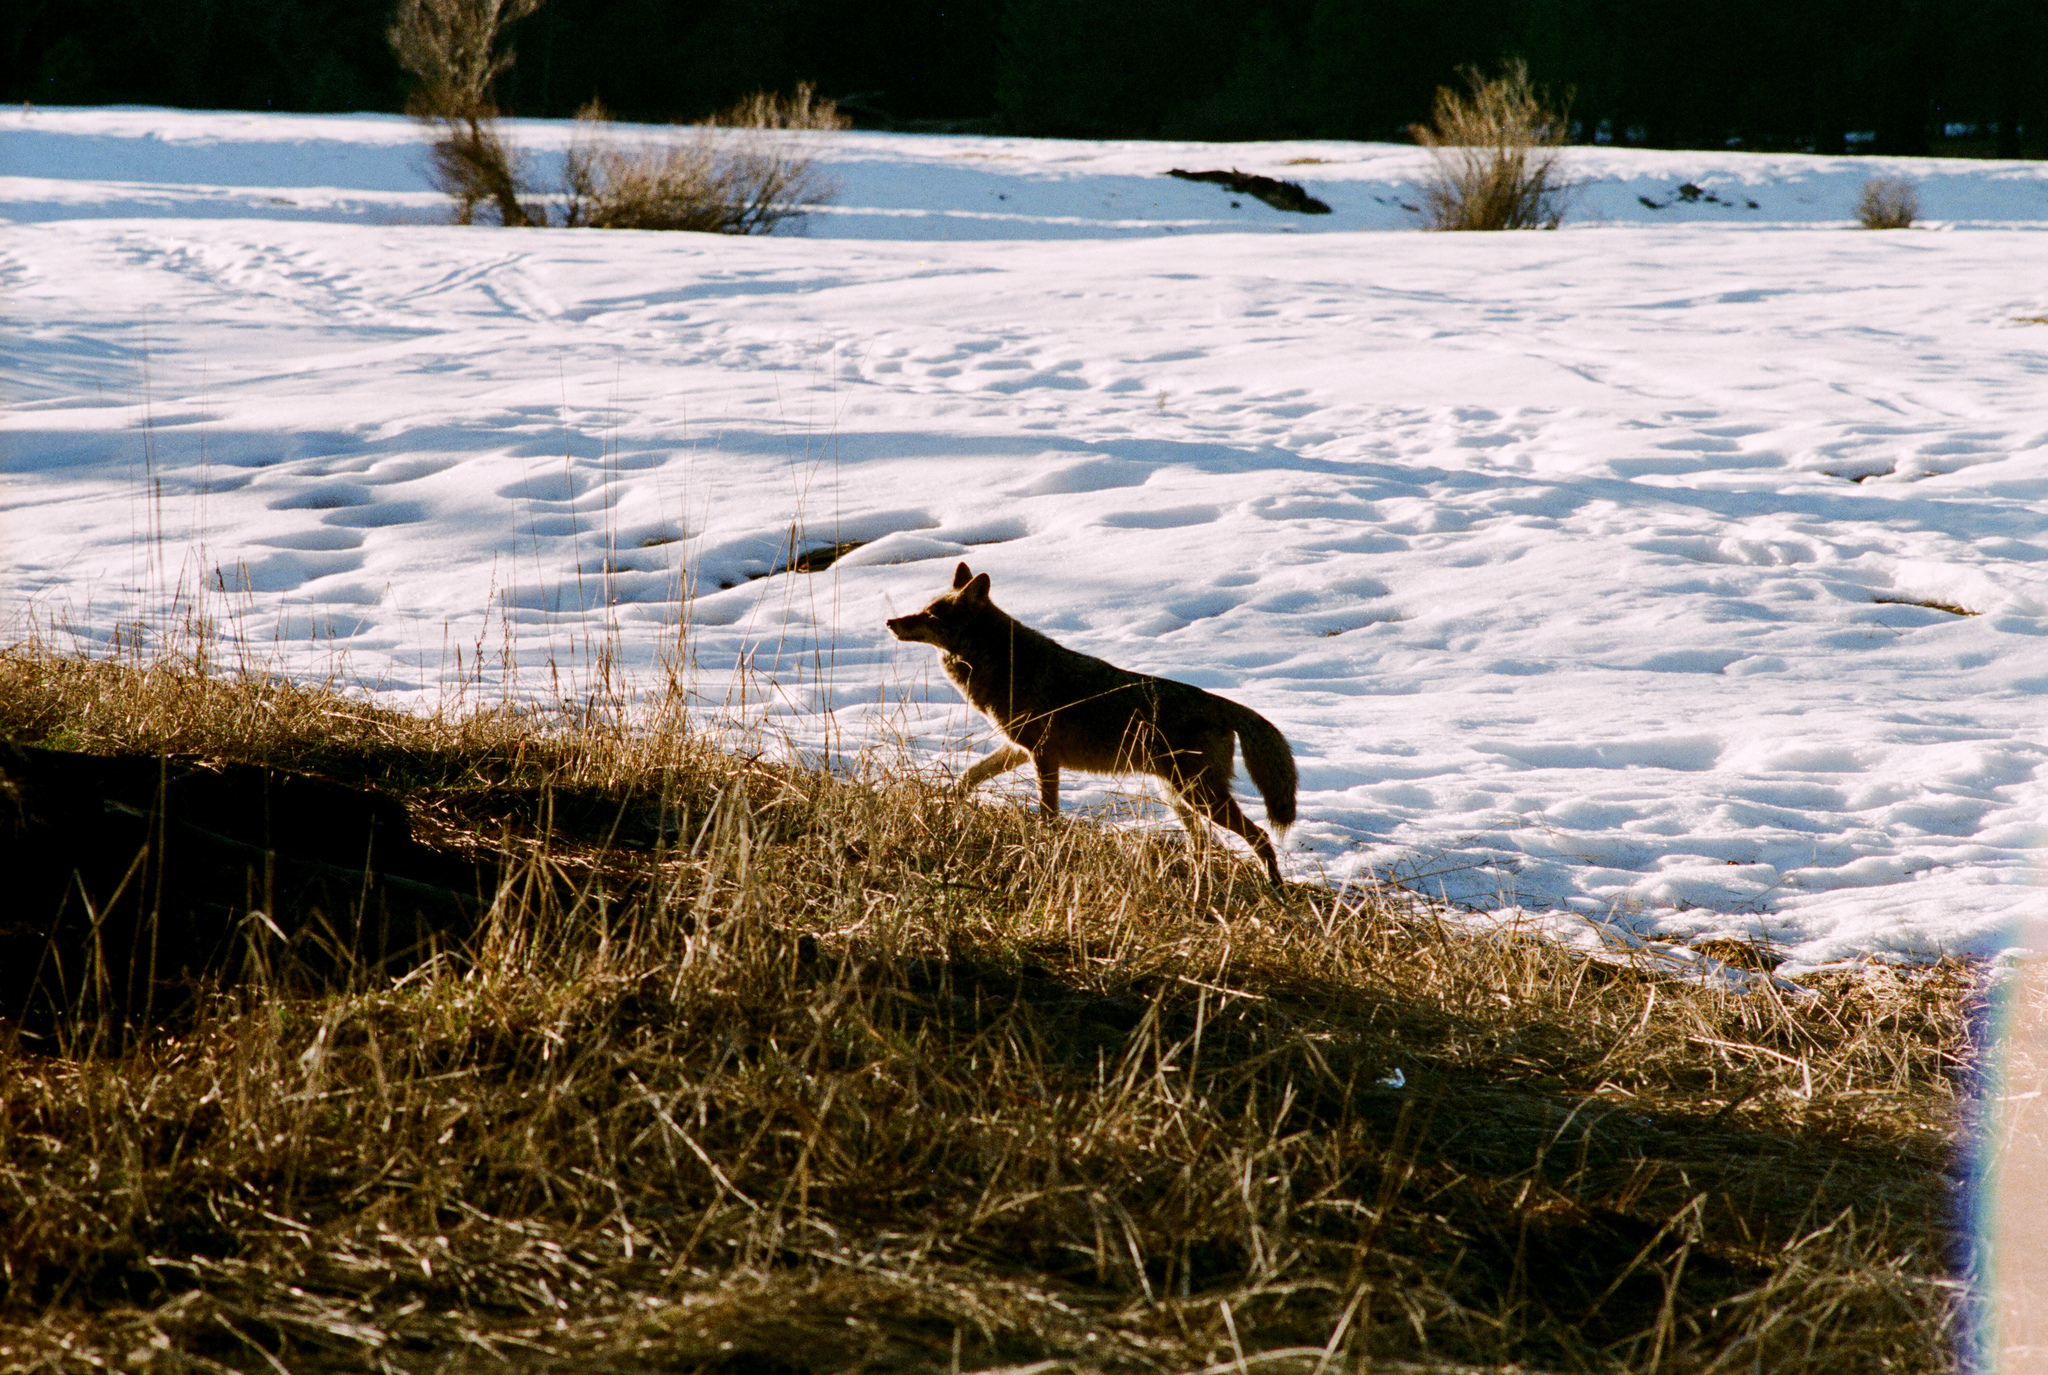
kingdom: Animalia
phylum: Chordata
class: Mammalia
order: Carnivora
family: Canidae
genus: Canis
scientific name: Canis latrans
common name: Coyote
